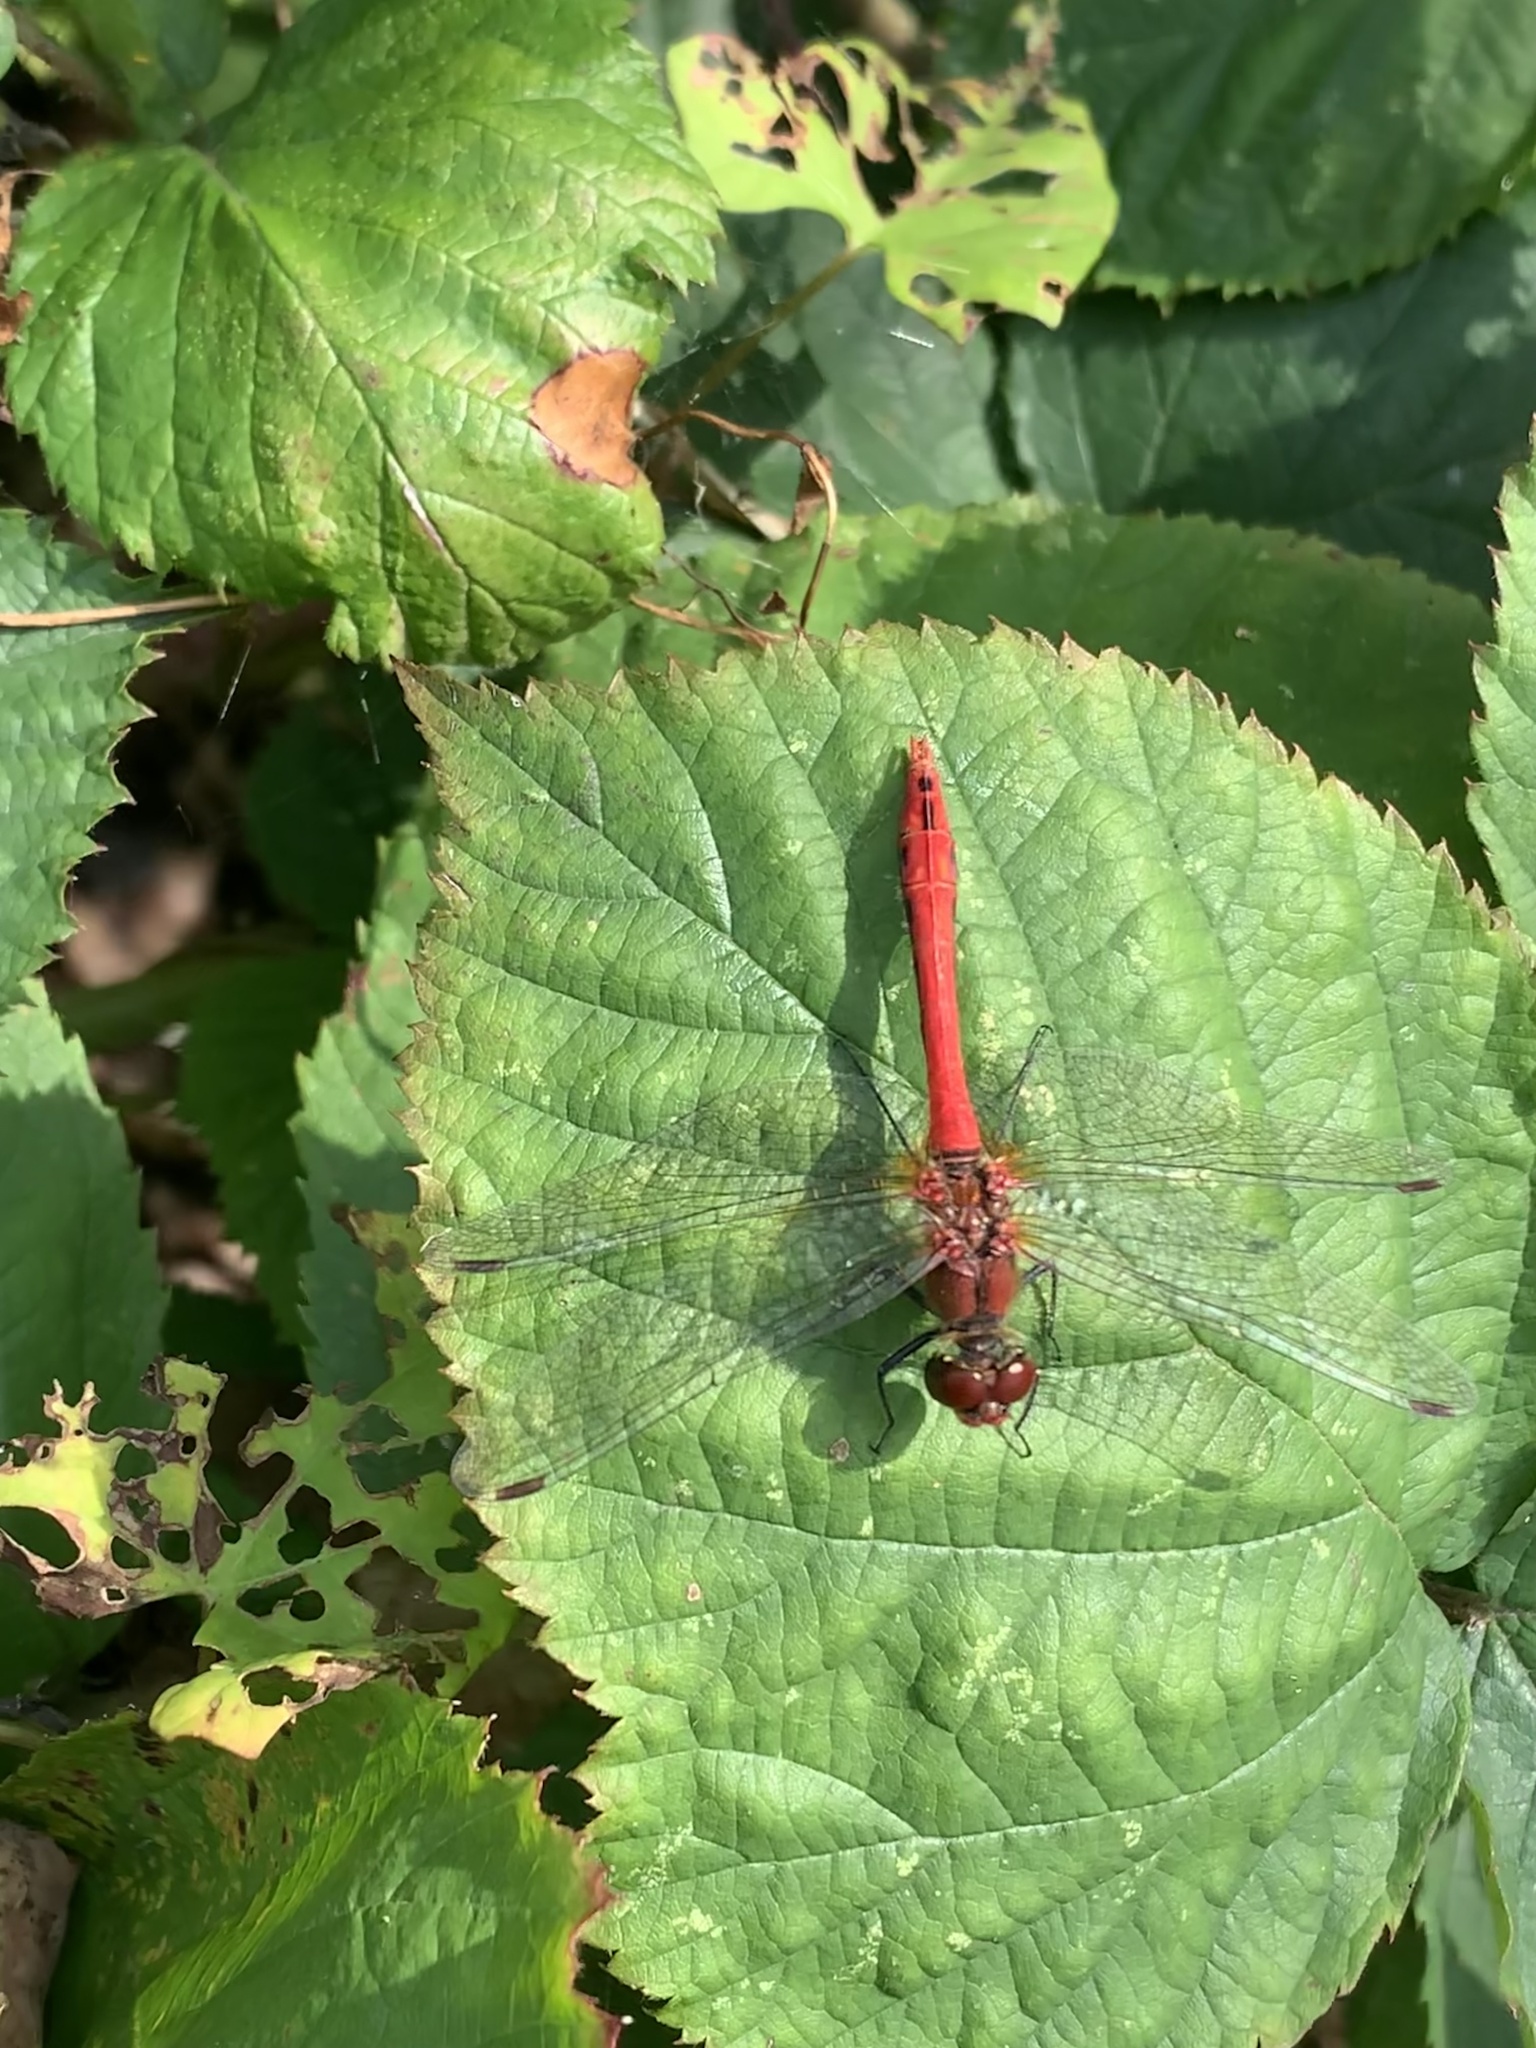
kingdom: Animalia
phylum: Arthropoda
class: Insecta
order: Odonata
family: Libellulidae
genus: Sympetrum
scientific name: Sympetrum sanguineum
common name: Ruddy darter
